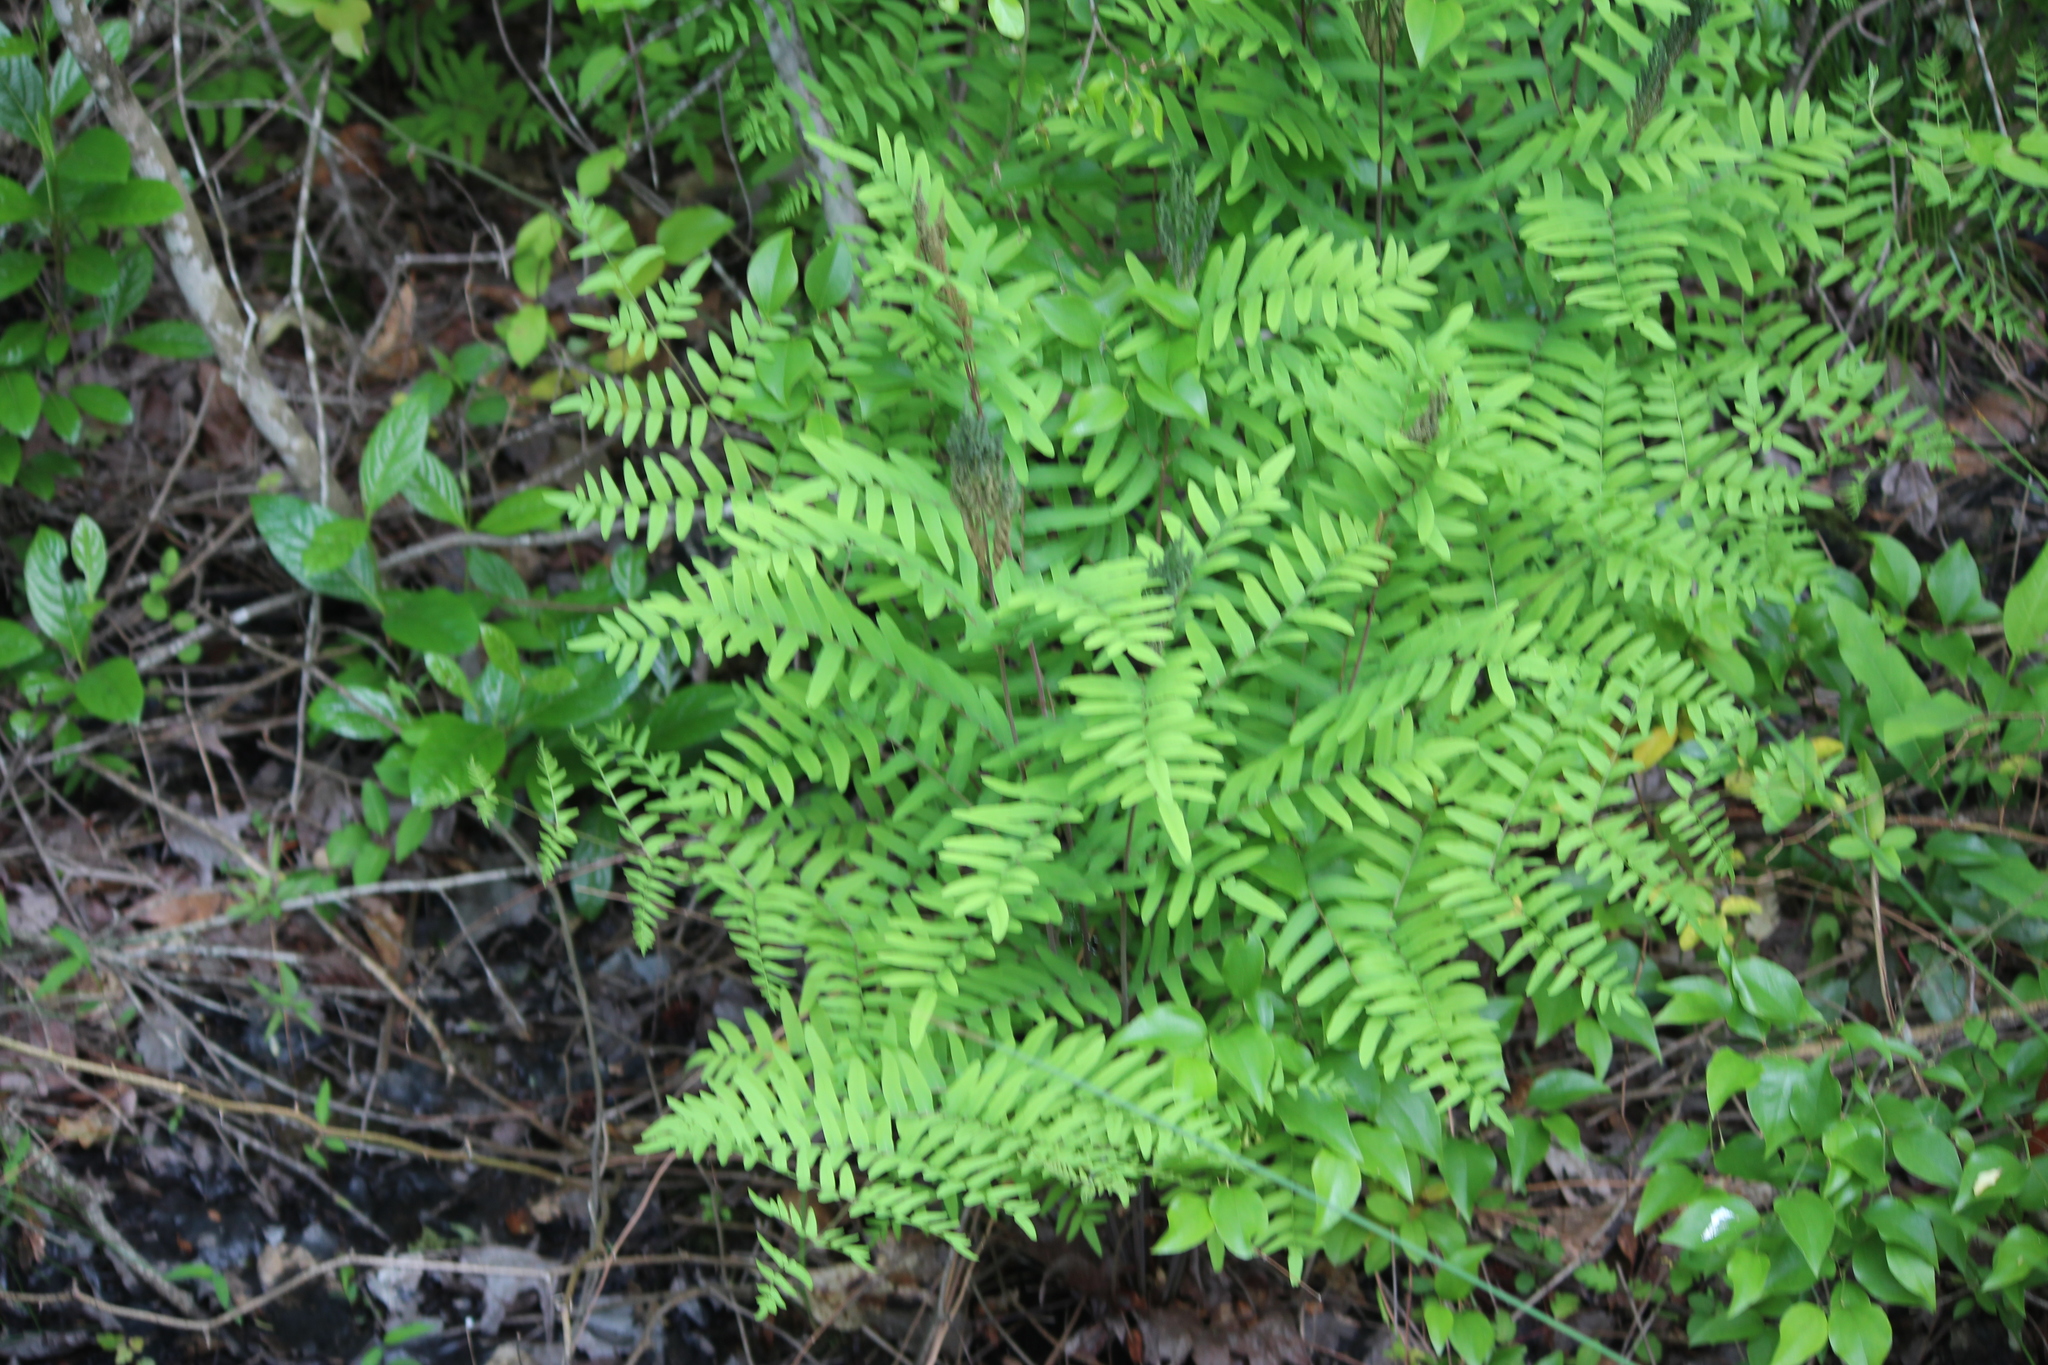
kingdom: Plantae
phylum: Tracheophyta
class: Polypodiopsida
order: Osmundales
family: Osmundaceae
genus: Osmunda
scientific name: Osmunda spectabilis
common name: American royal fern
